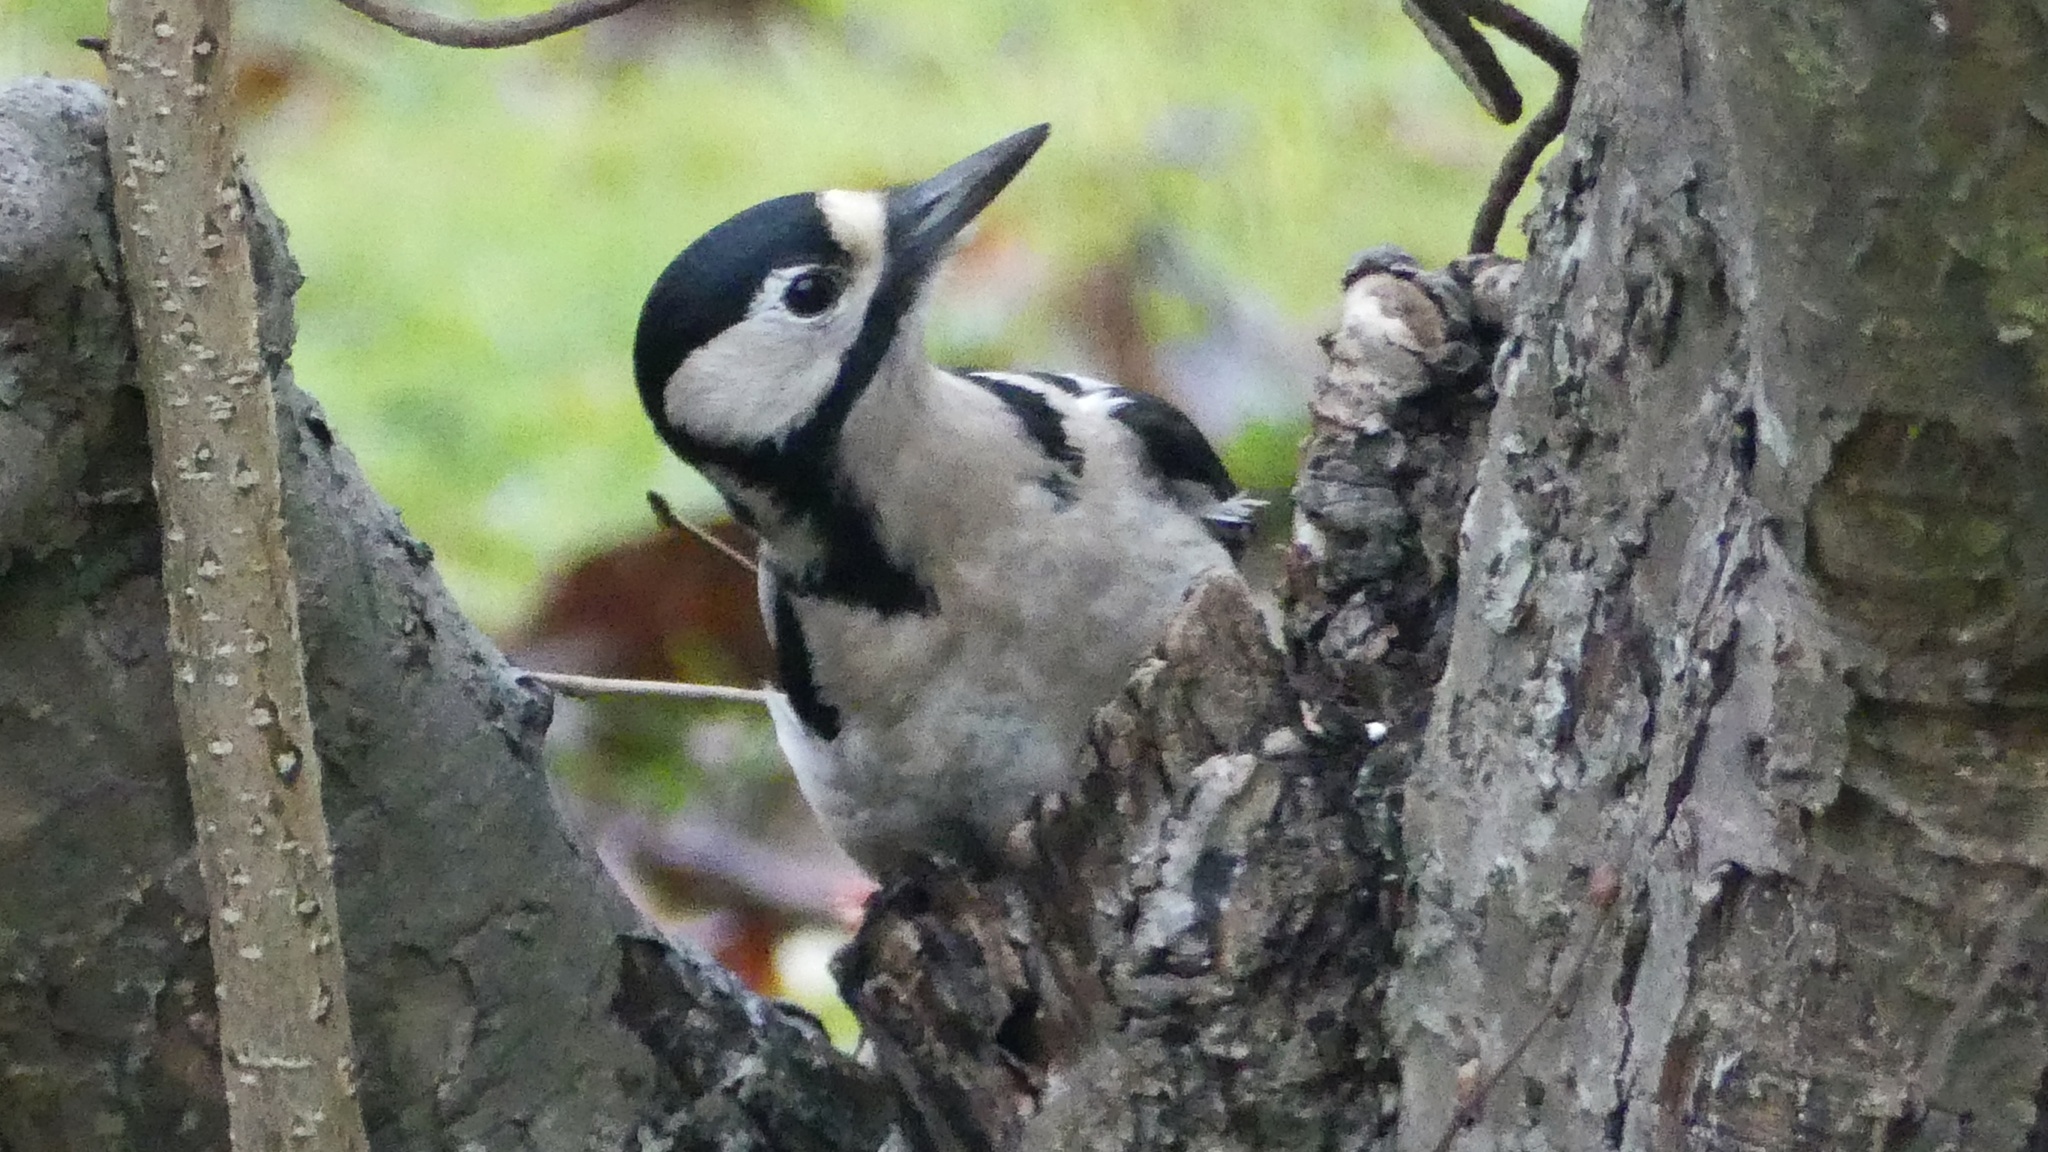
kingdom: Animalia
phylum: Chordata
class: Aves
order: Piciformes
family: Picidae
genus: Dendrocopos
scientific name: Dendrocopos major
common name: Great spotted woodpecker
